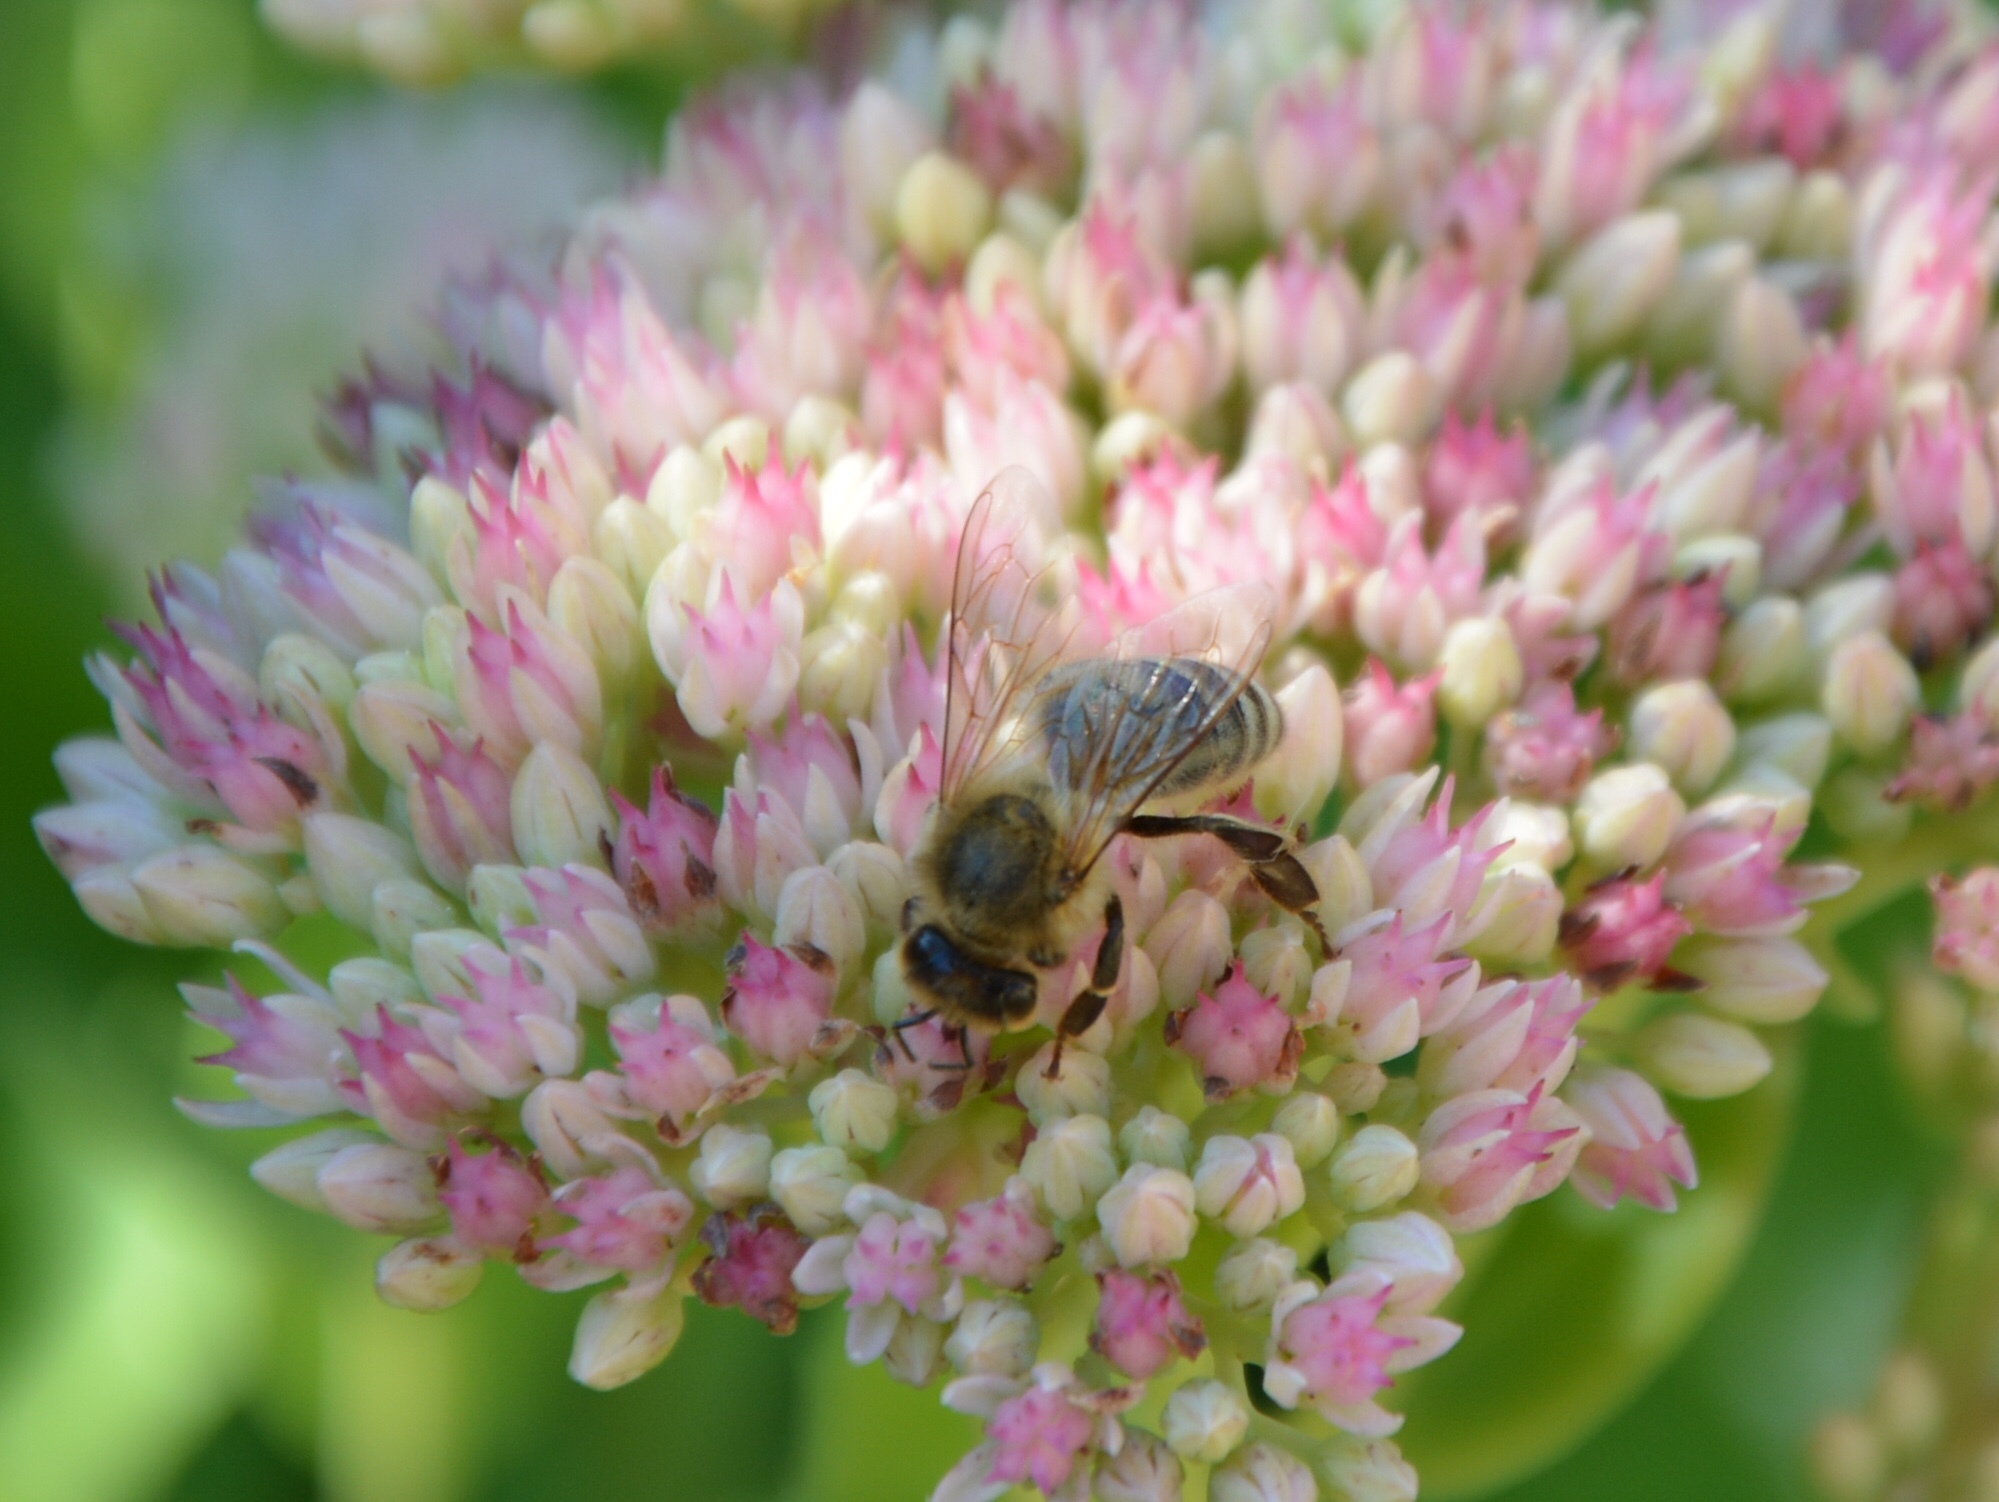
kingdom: Animalia
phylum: Arthropoda
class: Insecta
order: Hymenoptera
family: Apidae
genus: Apis
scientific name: Apis mellifera
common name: Honey bee
